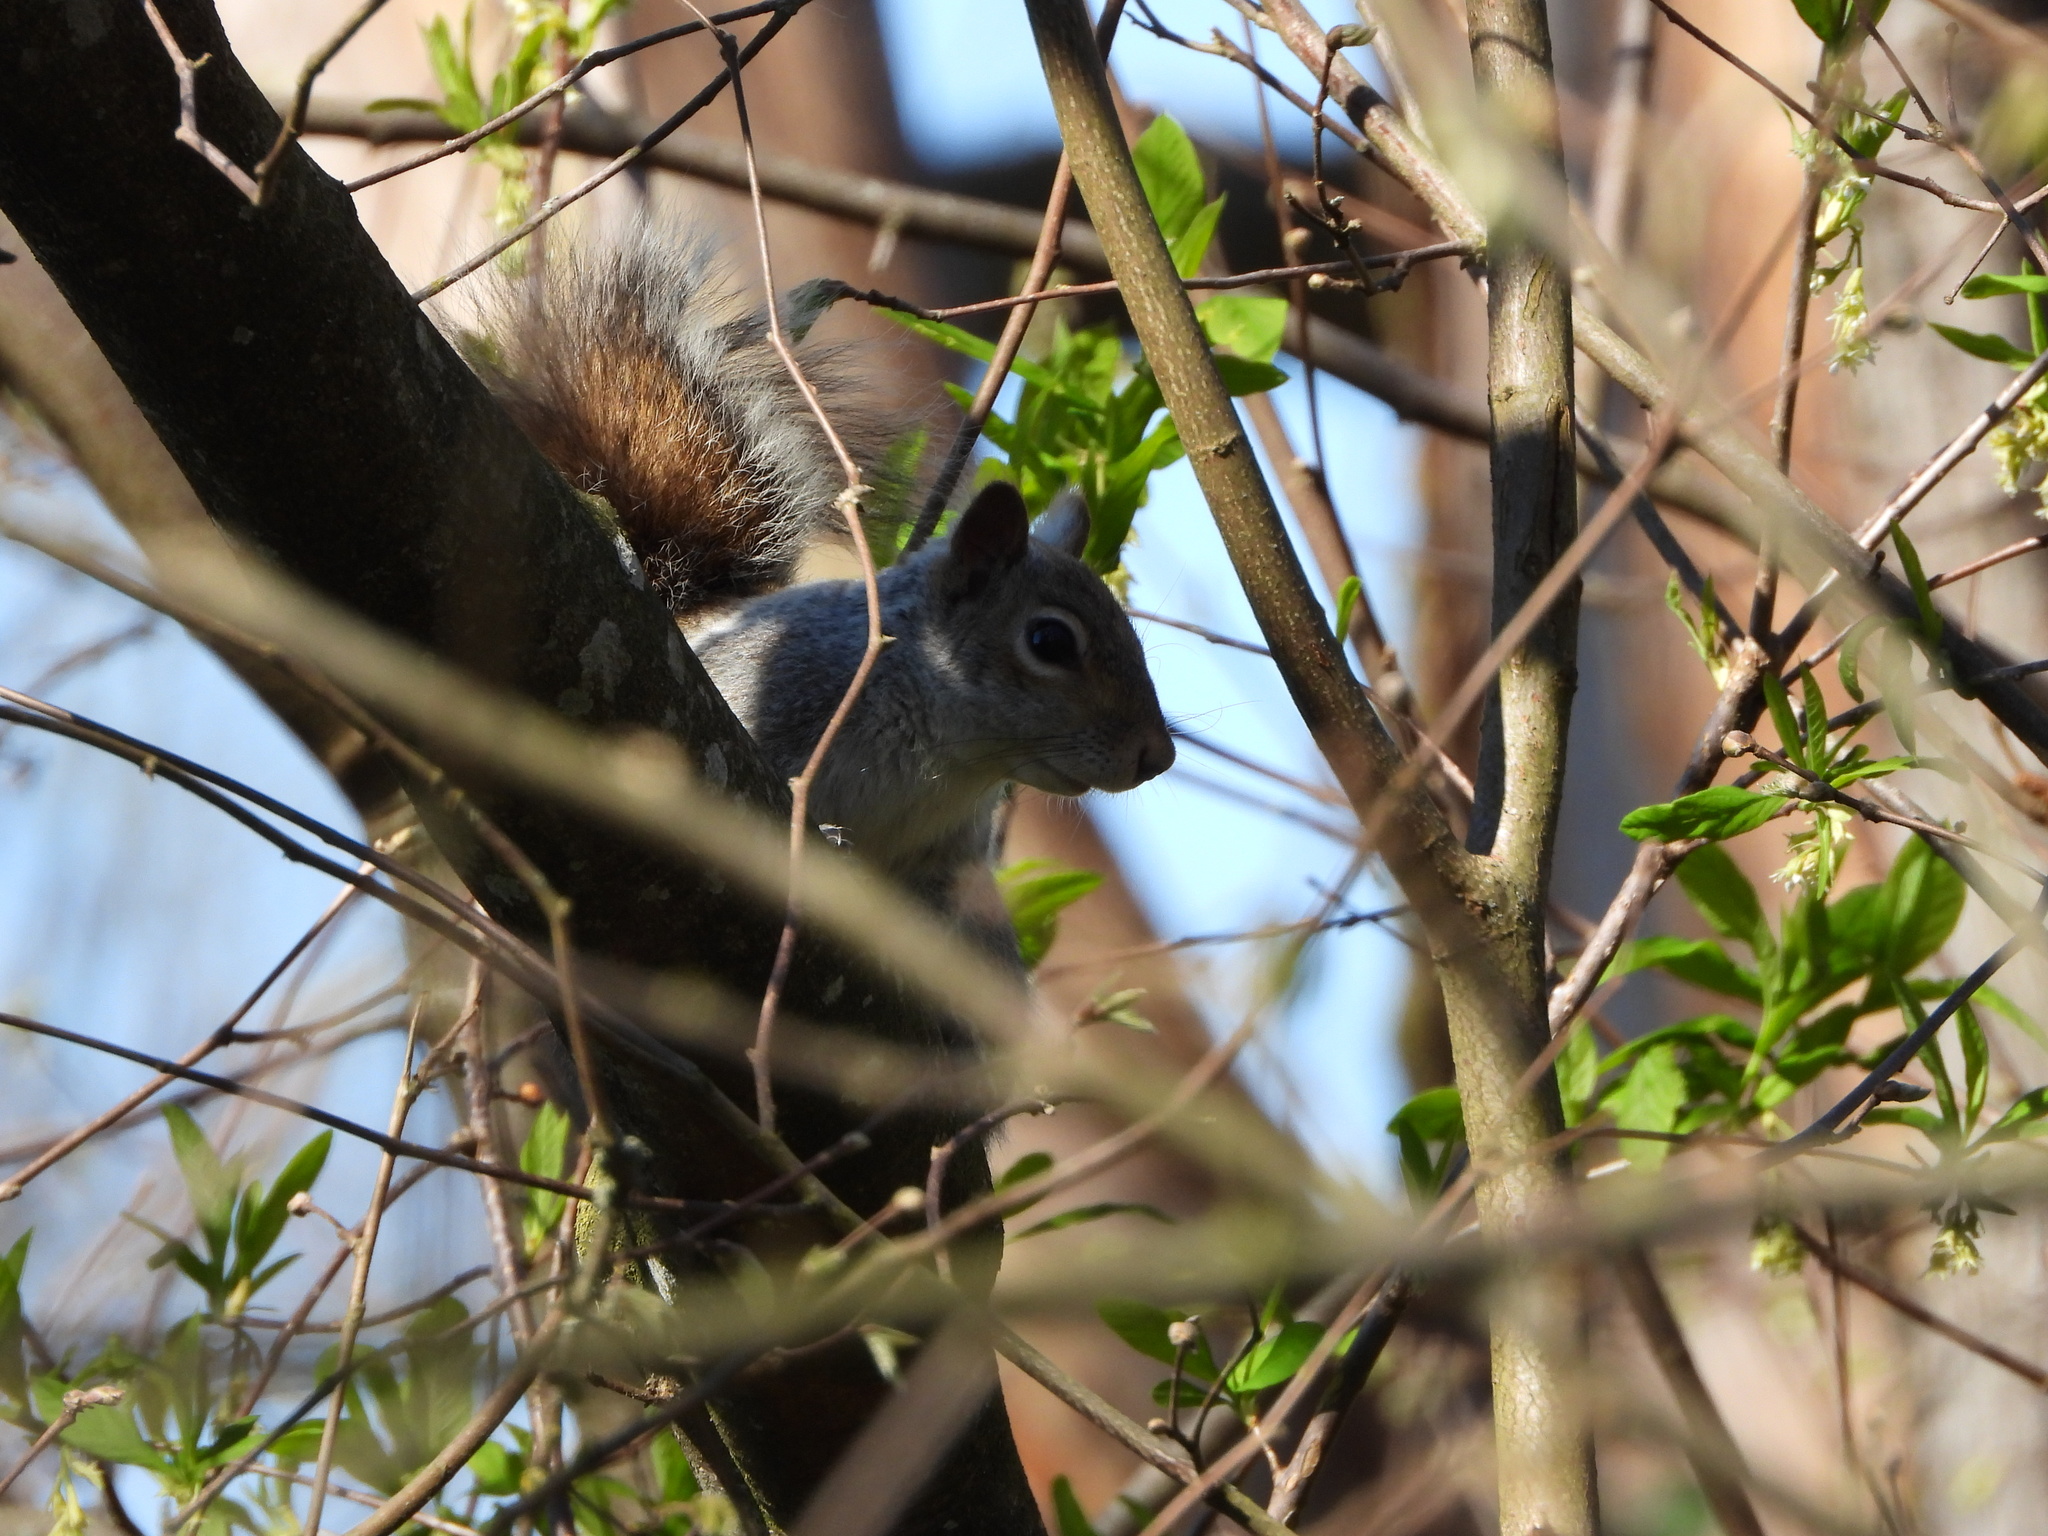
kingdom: Animalia
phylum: Chordata
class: Mammalia
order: Rodentia
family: Sciuridae
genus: Sciurus
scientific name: Sciurus carolinensis
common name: Eastern gray squirrel
